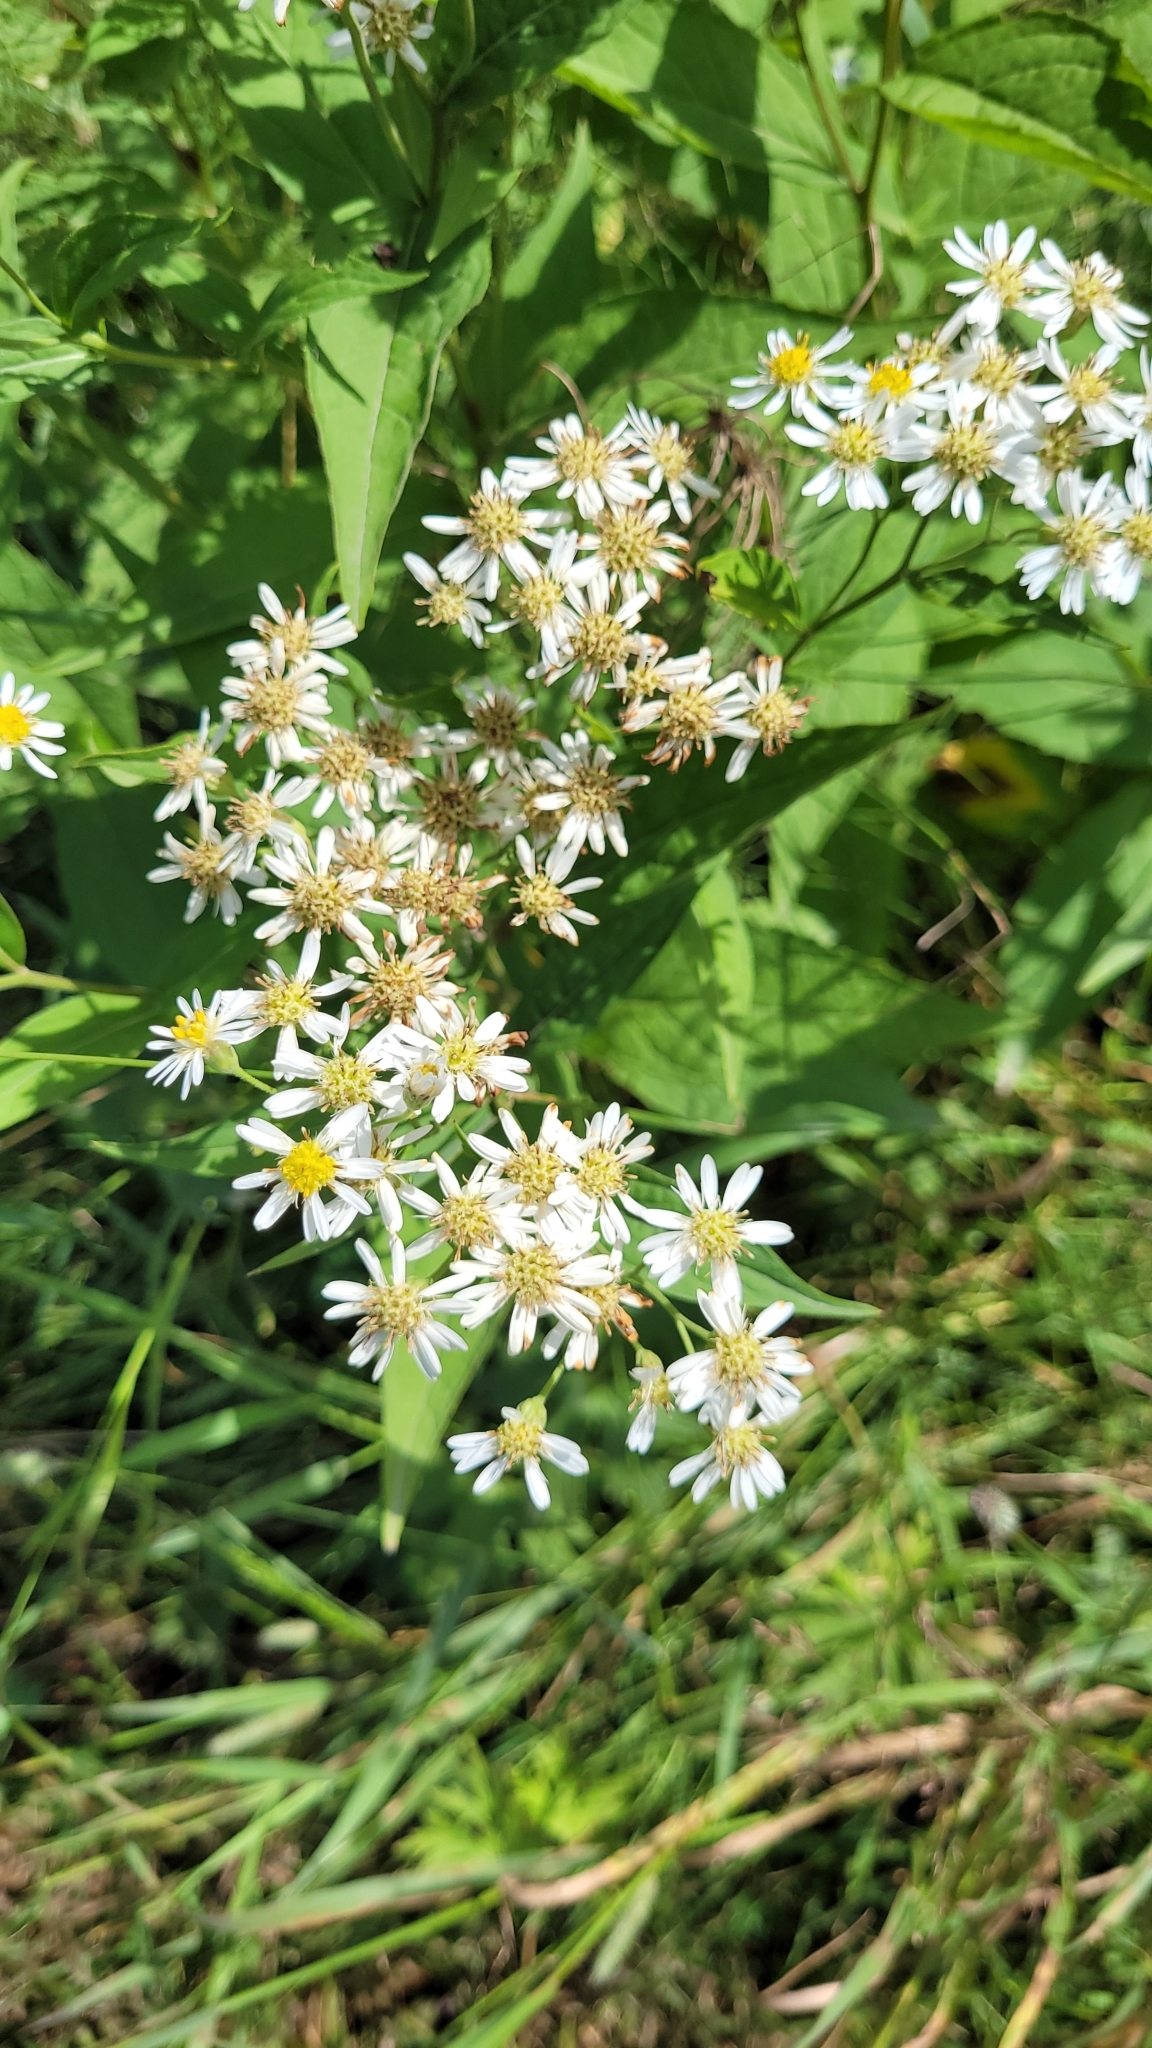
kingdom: Plantae
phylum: Tracheophyta
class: Magnoliopsida
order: Asterales
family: Asteraceae
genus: Kitamuria
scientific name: Kitamuria glehnii
